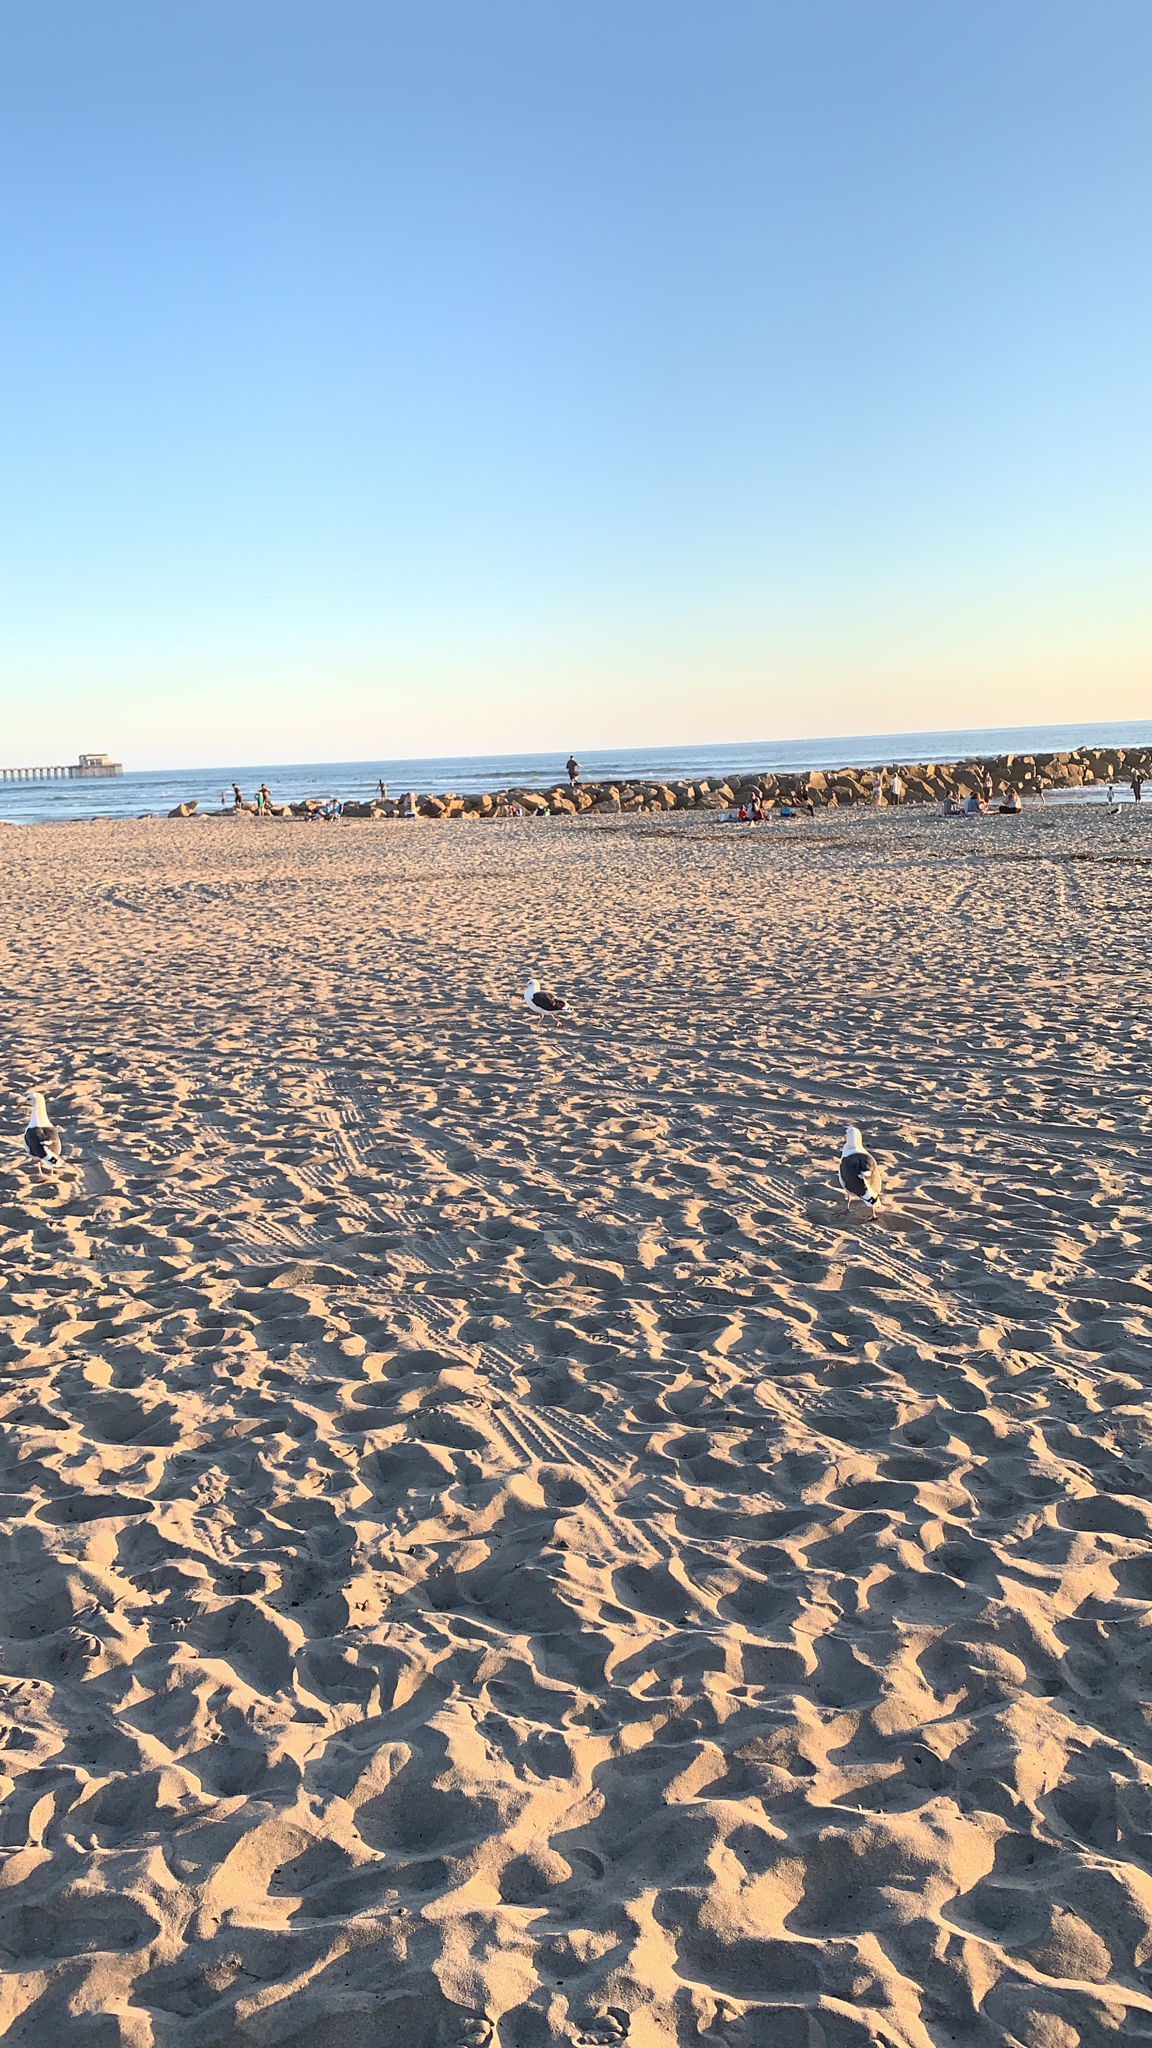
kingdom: Animalia
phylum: Chordata
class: Aves
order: Charadriiformes
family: Laridae
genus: Larus
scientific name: Larus occidentalis
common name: Western gull
